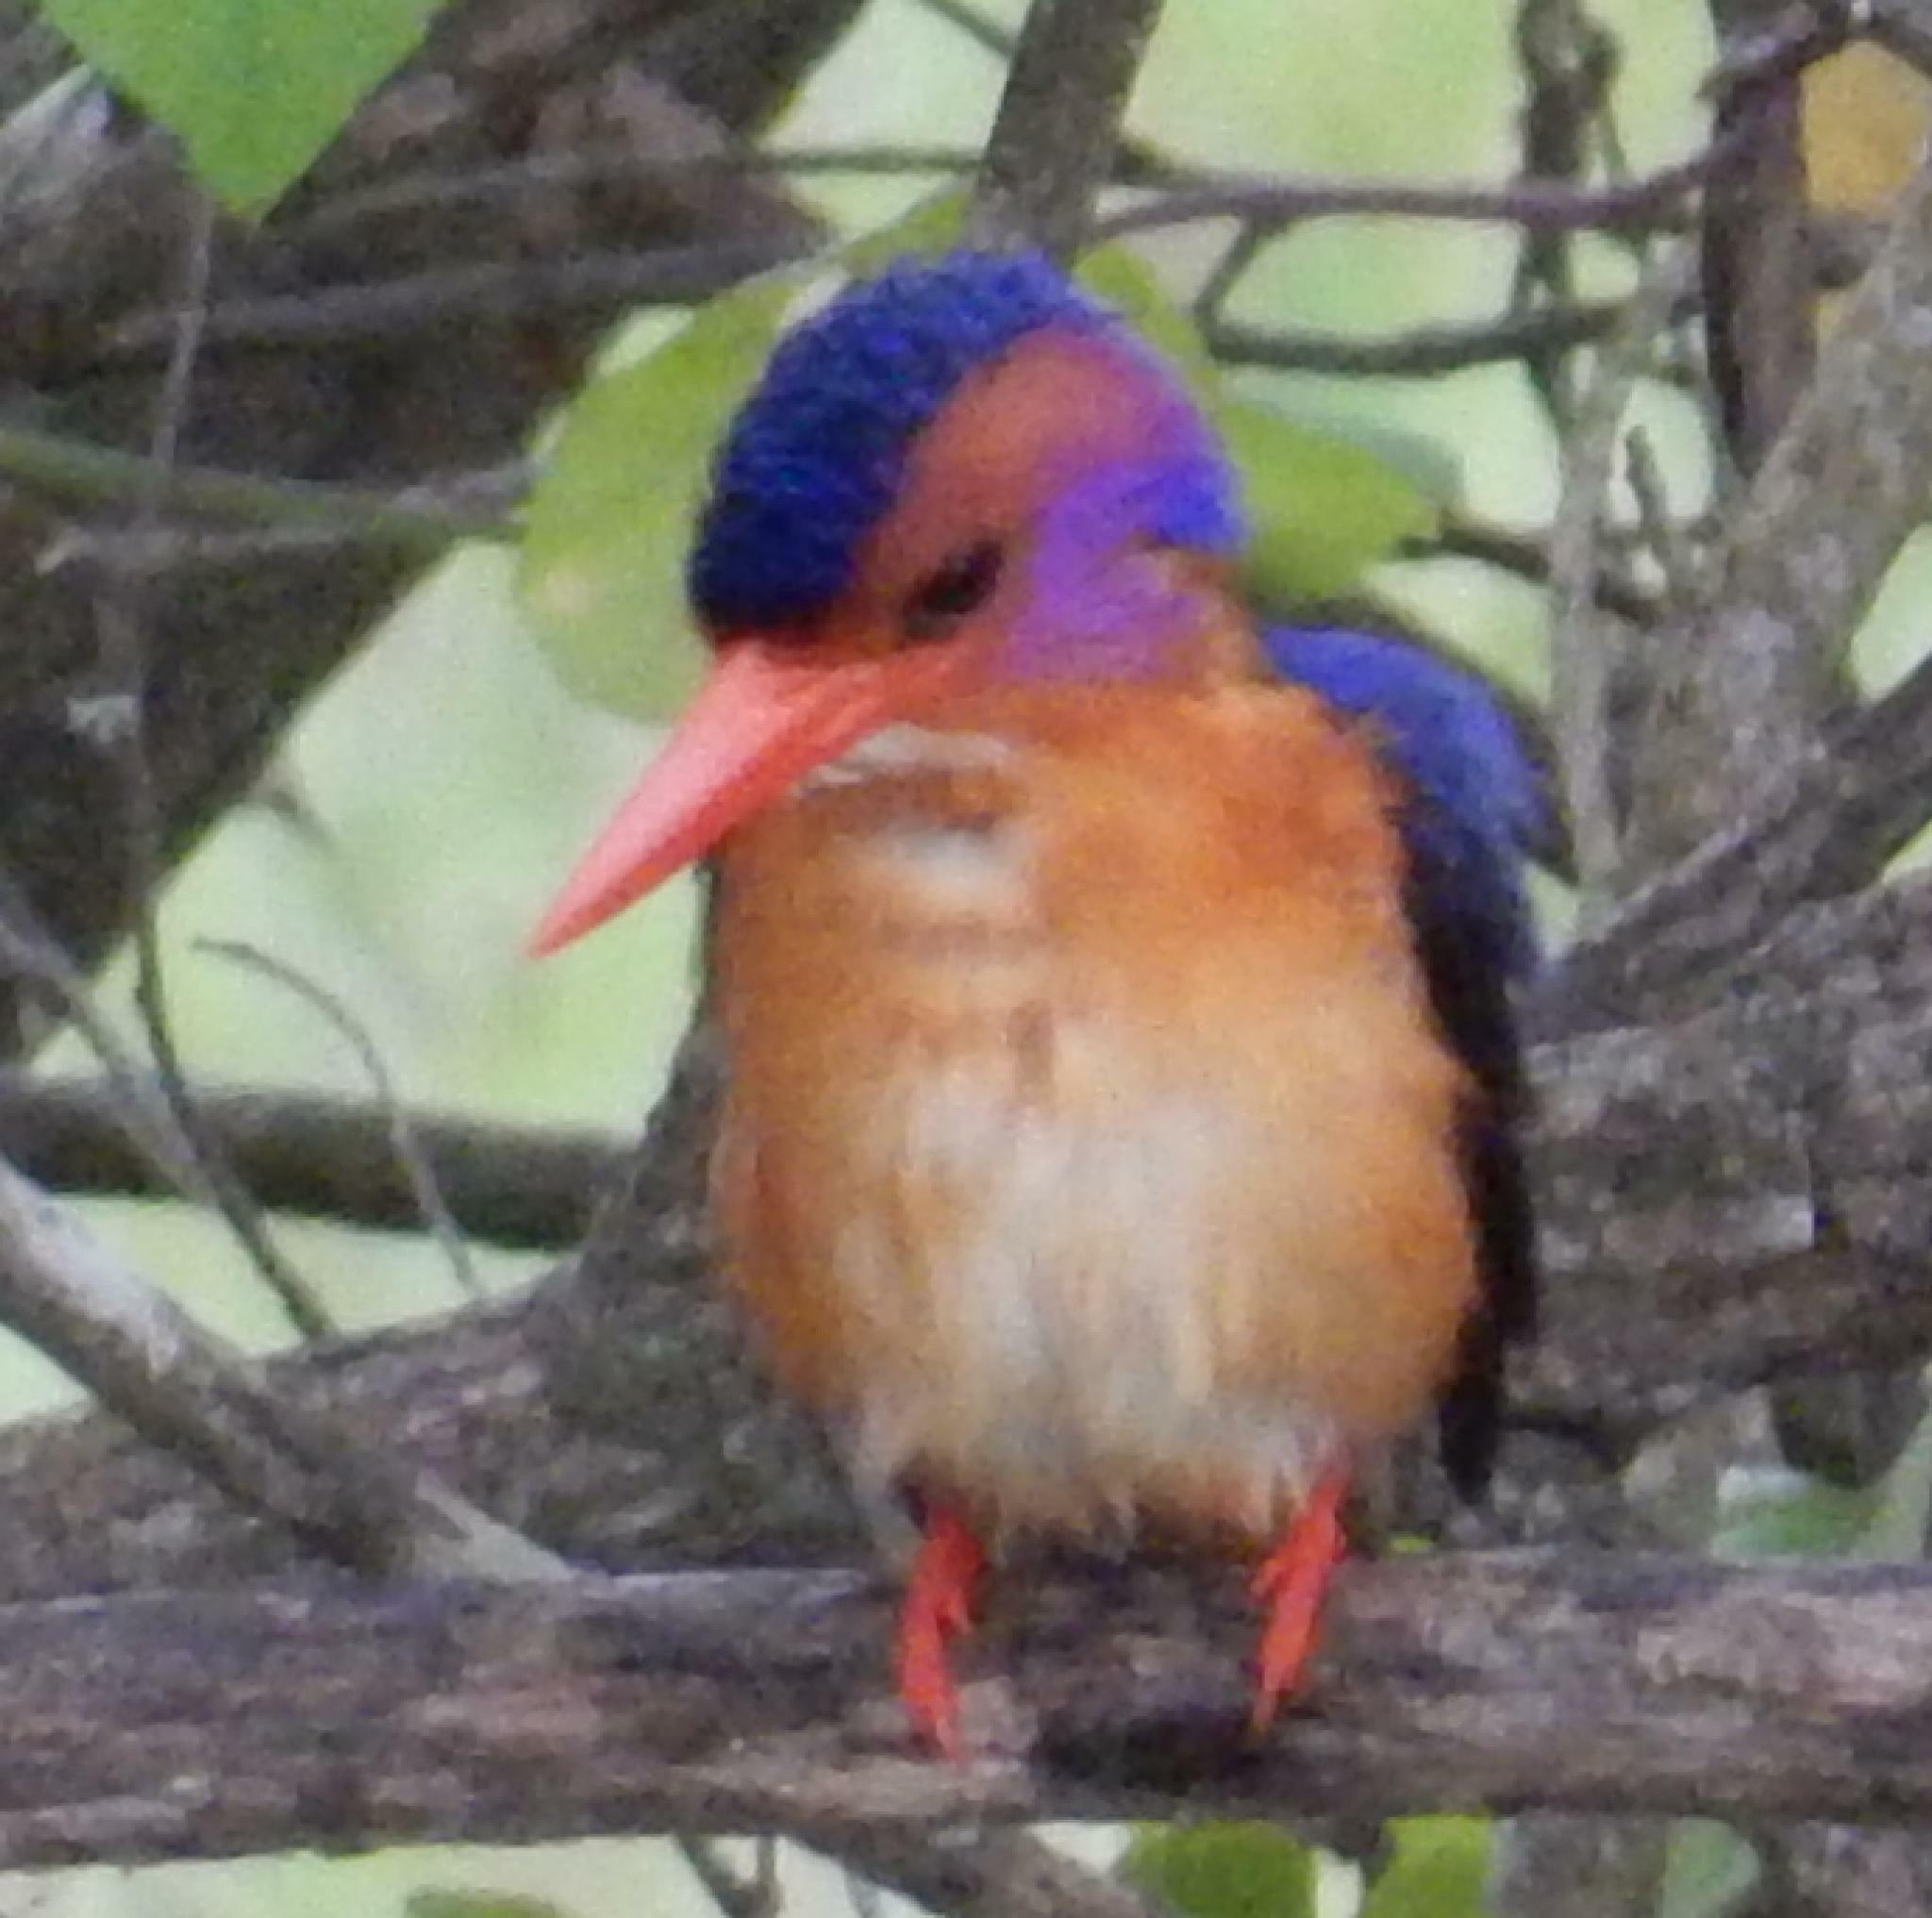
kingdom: Animalia
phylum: Chordata
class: Aves
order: Coraciiformes
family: Alcedinidae
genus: Ispidina
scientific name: Ispidina picta
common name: African pygmy-kingfisher
